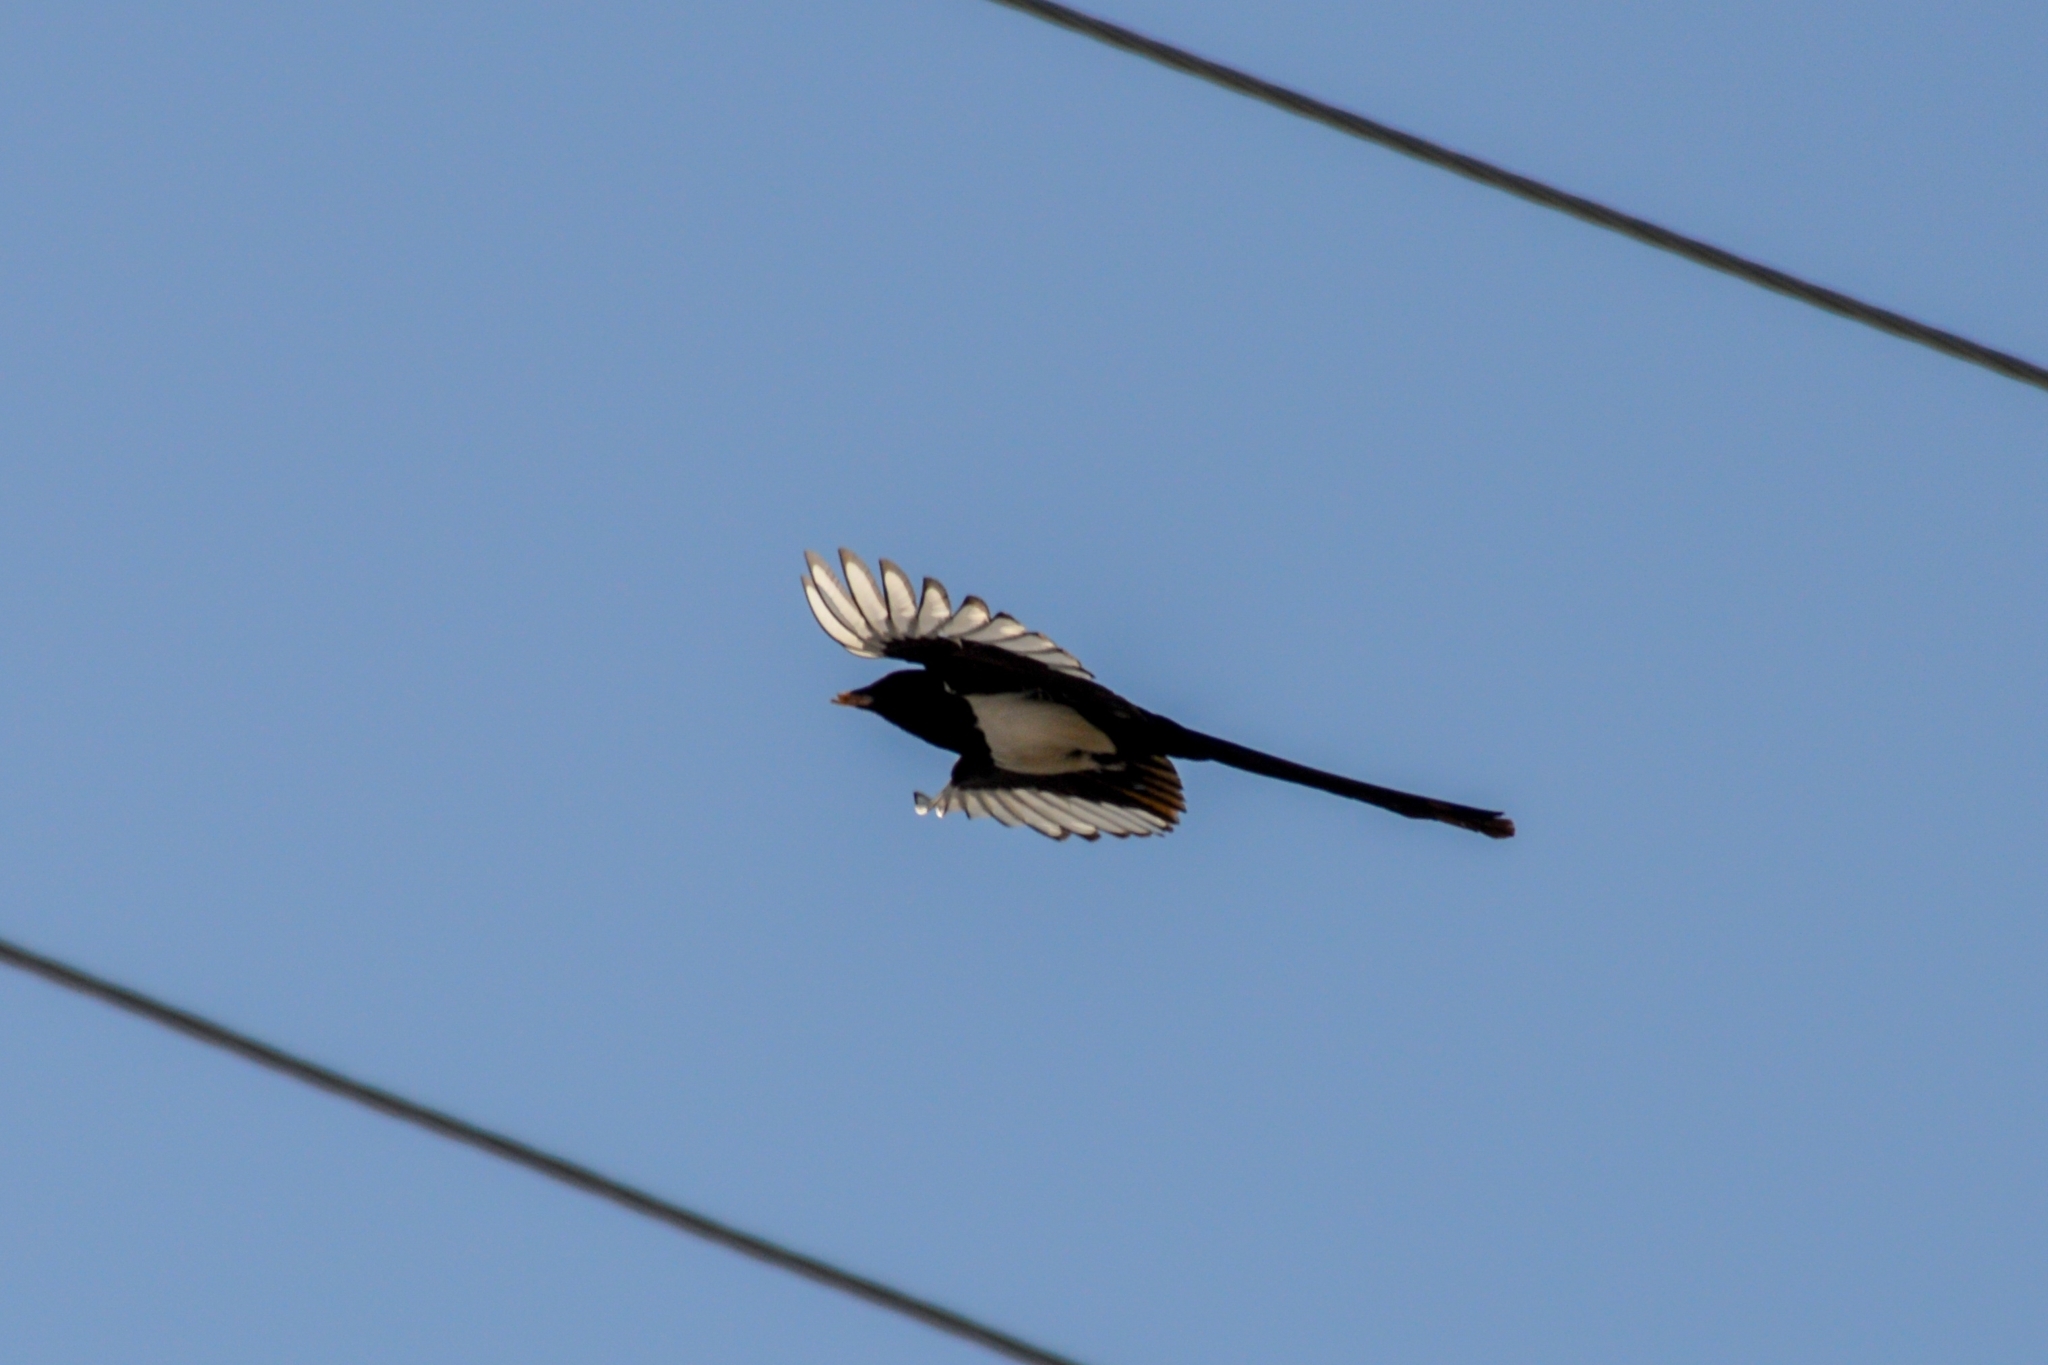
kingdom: Animalia
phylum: Chordata
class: Aves
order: Passeriformes
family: Corvidae
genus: Pica
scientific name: Pica pica
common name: Eurasian magpie
